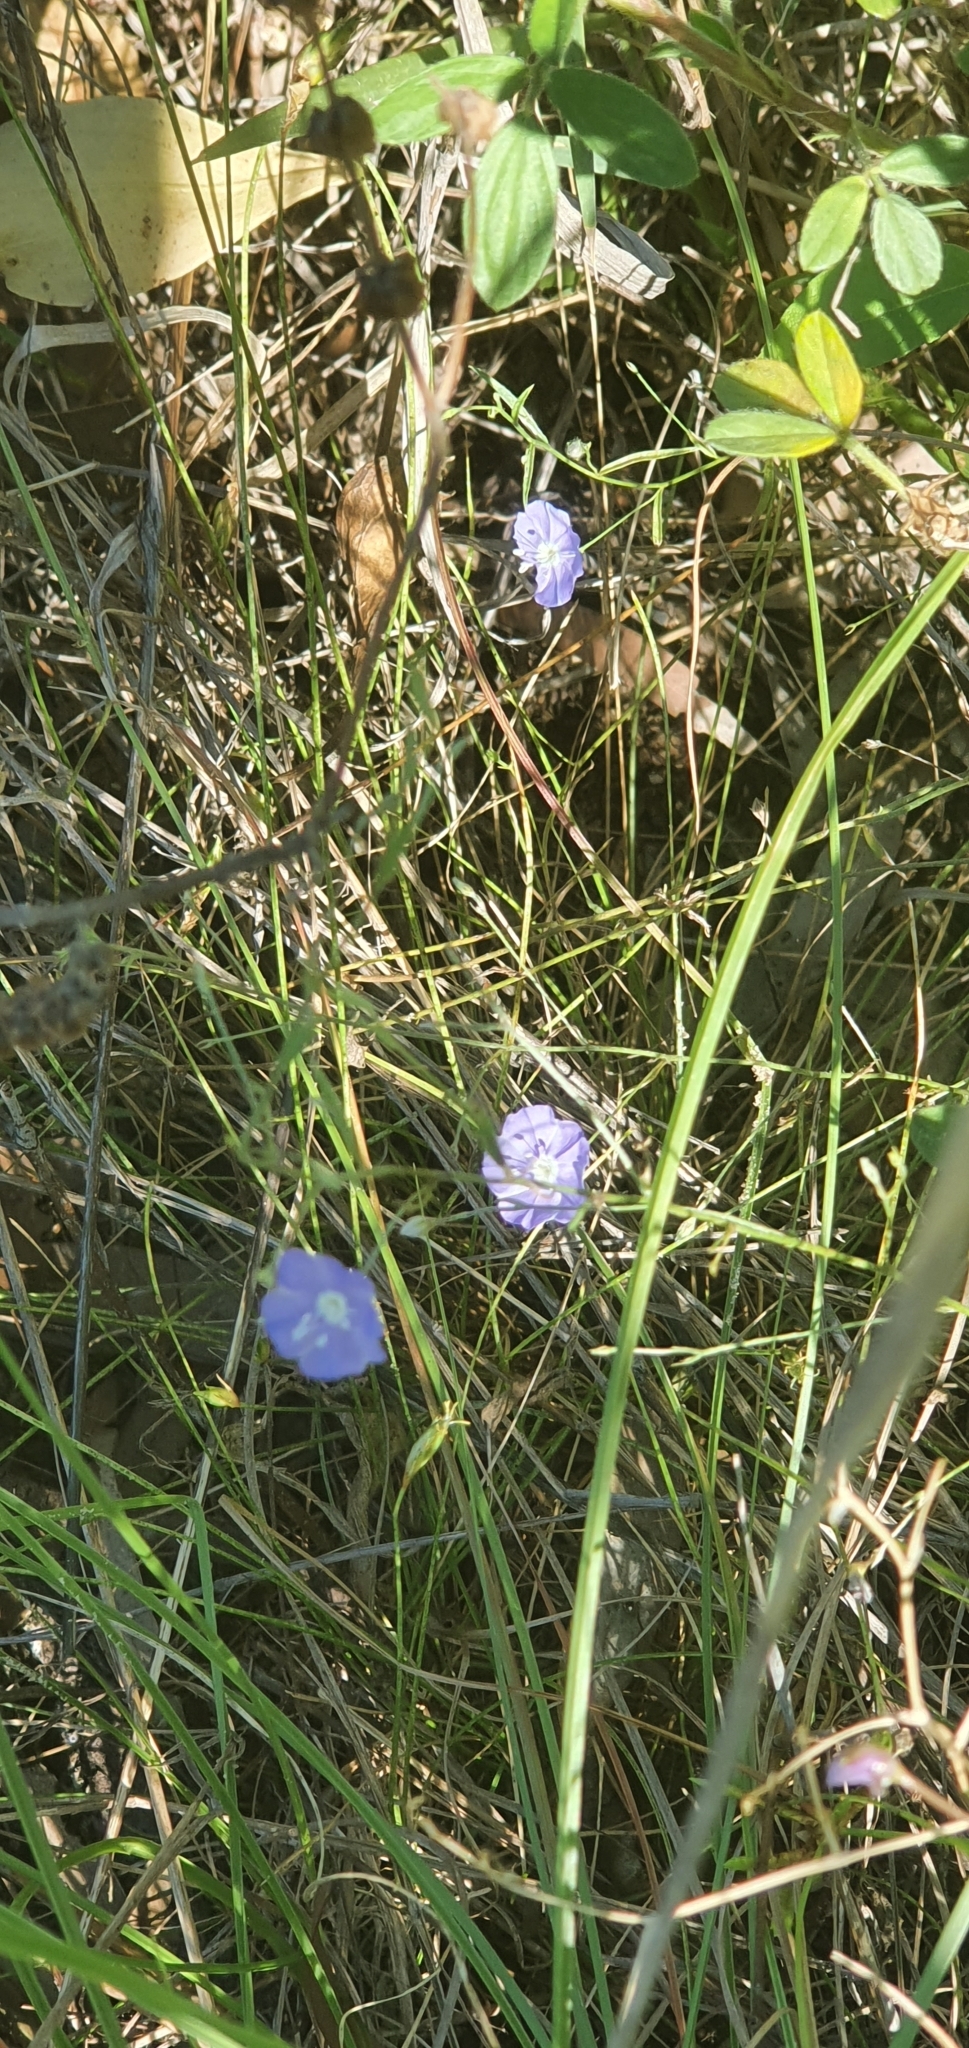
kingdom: Plantae
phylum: Tracheophyta
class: Magnoliopsida
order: Solanales
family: Convolvulaceae
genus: Evolvulus
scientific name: Evolvulus alsinoides
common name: Slender dwarf morning-glory
